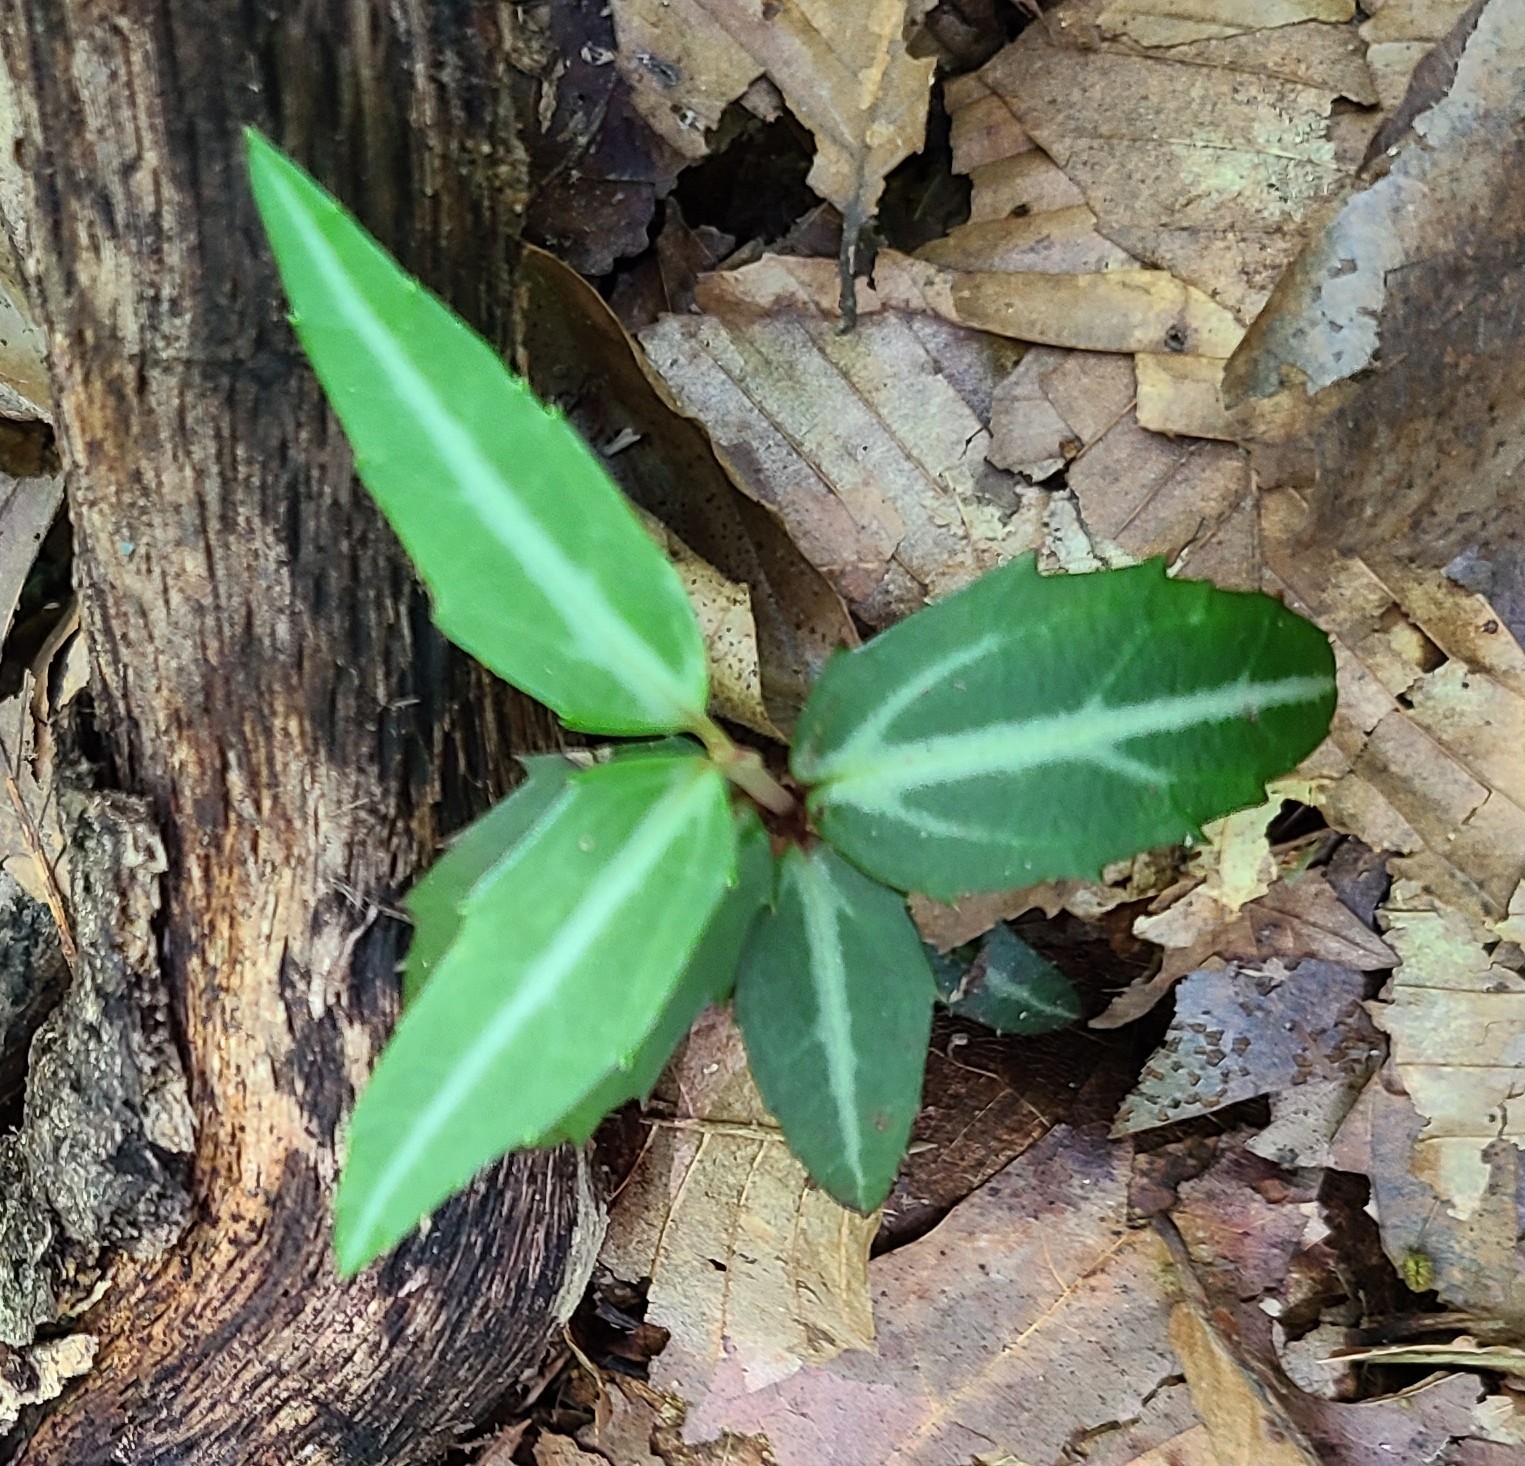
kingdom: Plantae
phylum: Tracheophyta
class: Magnoliopsida
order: Ericales
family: Ericaceae
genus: Chimaphila
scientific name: Chimaphila maculata
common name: Spotted pipsissewa
